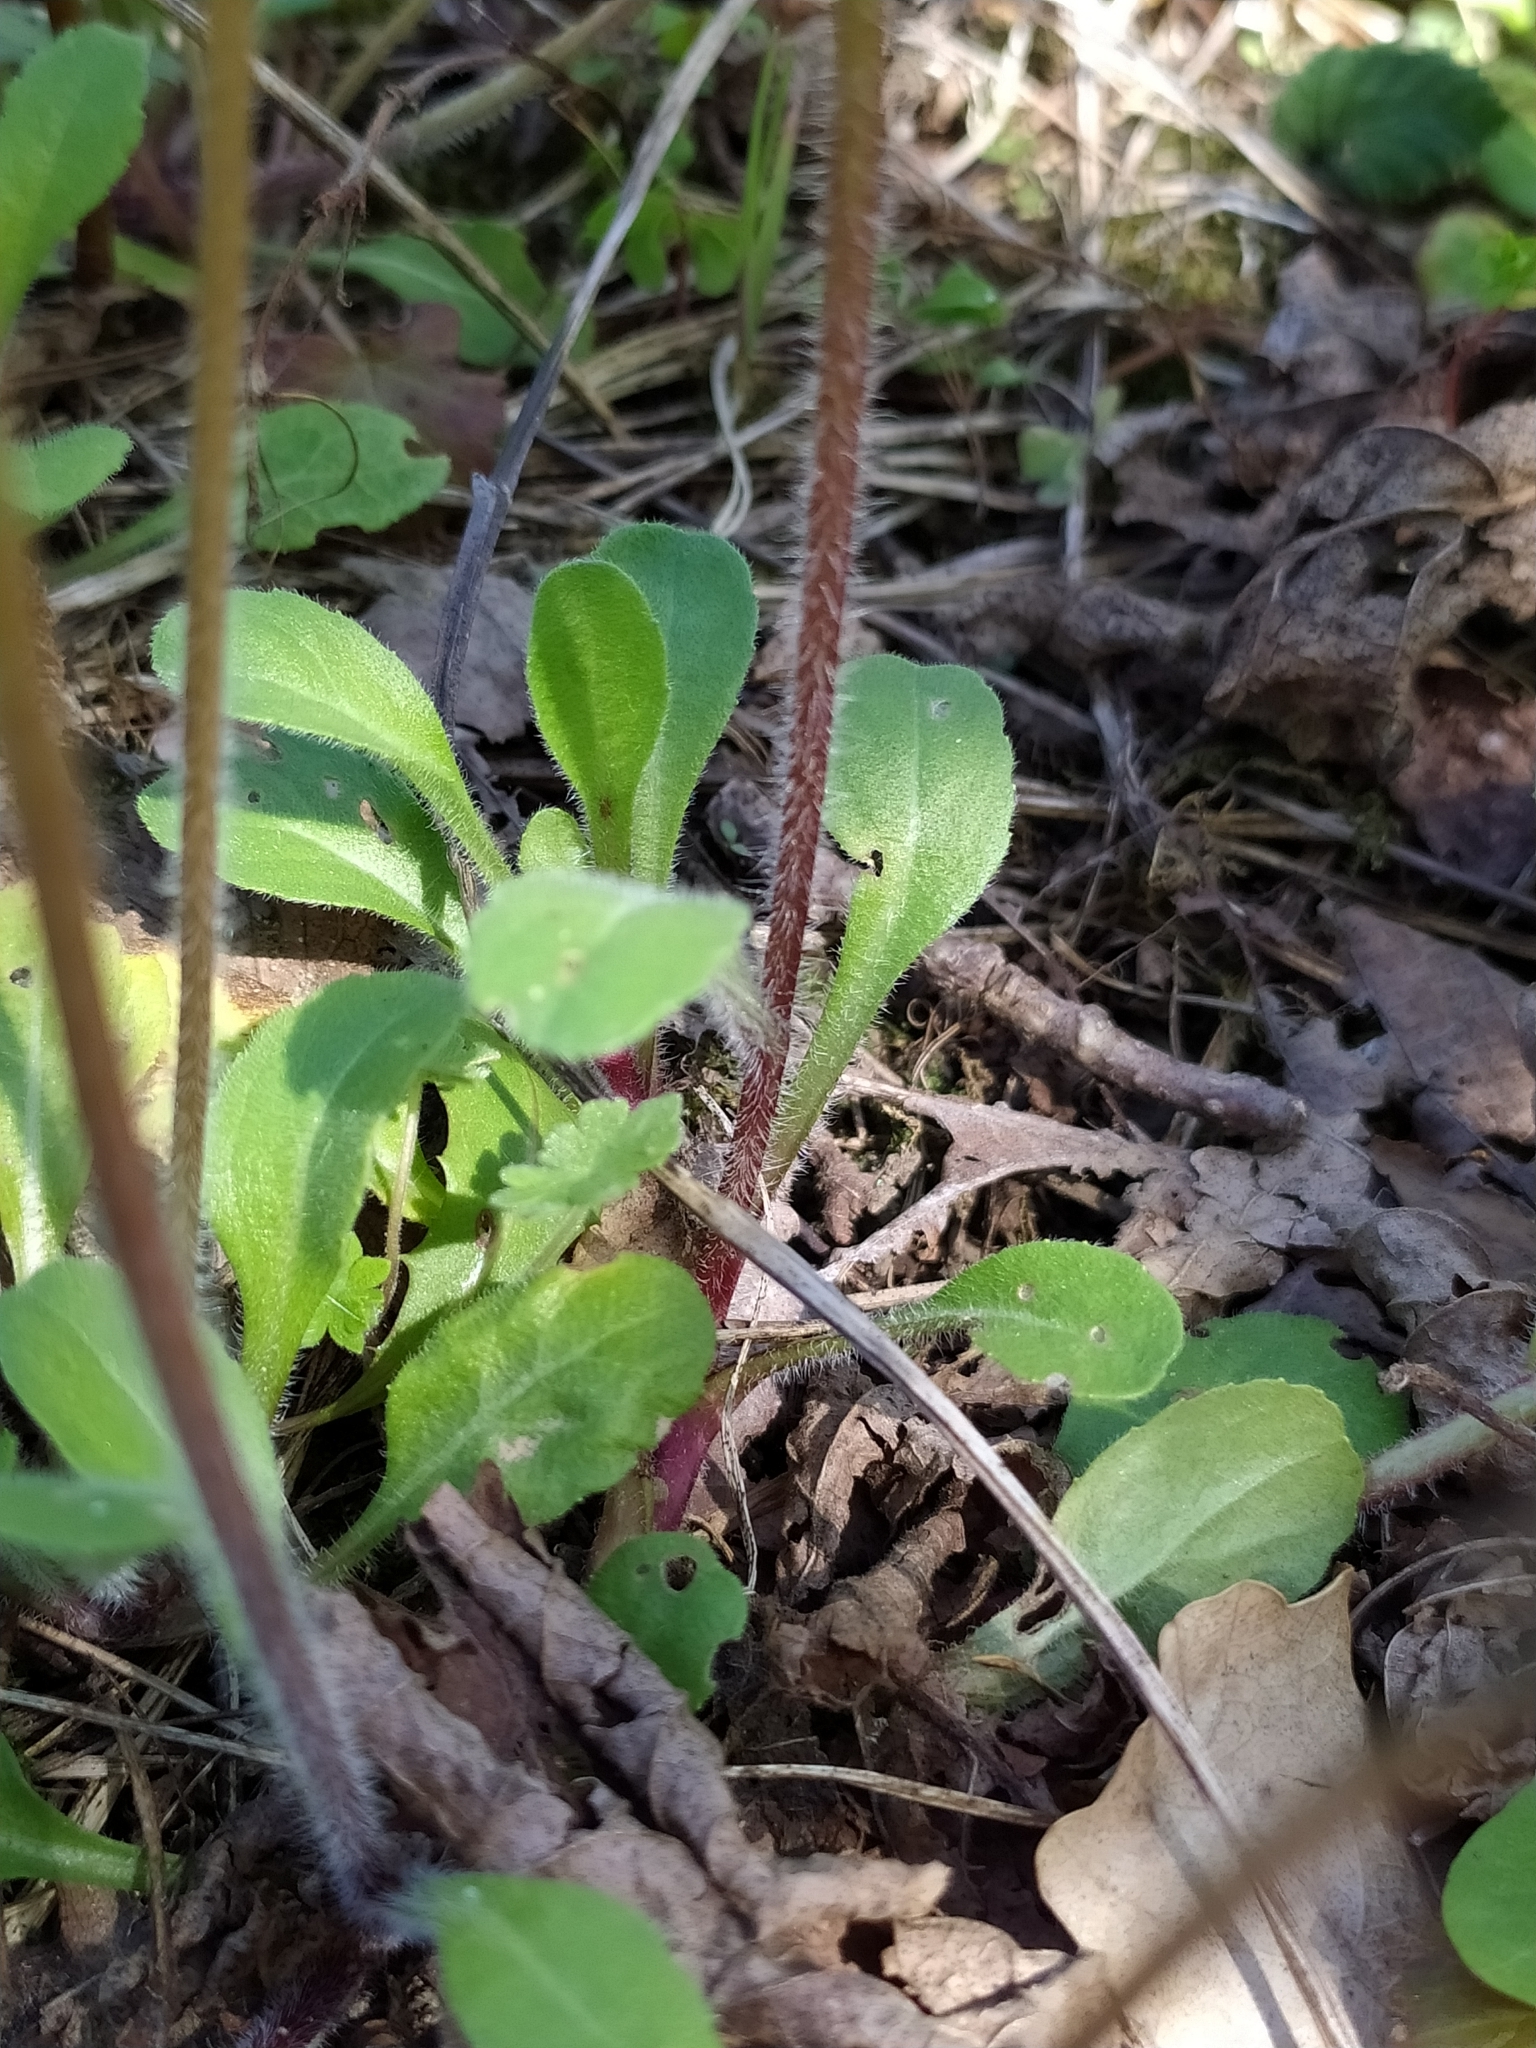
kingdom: Plantae
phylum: Tracheophyta
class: Magnoliopsida
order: Asterales
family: Asteraceae
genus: Bellis
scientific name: Bellis
